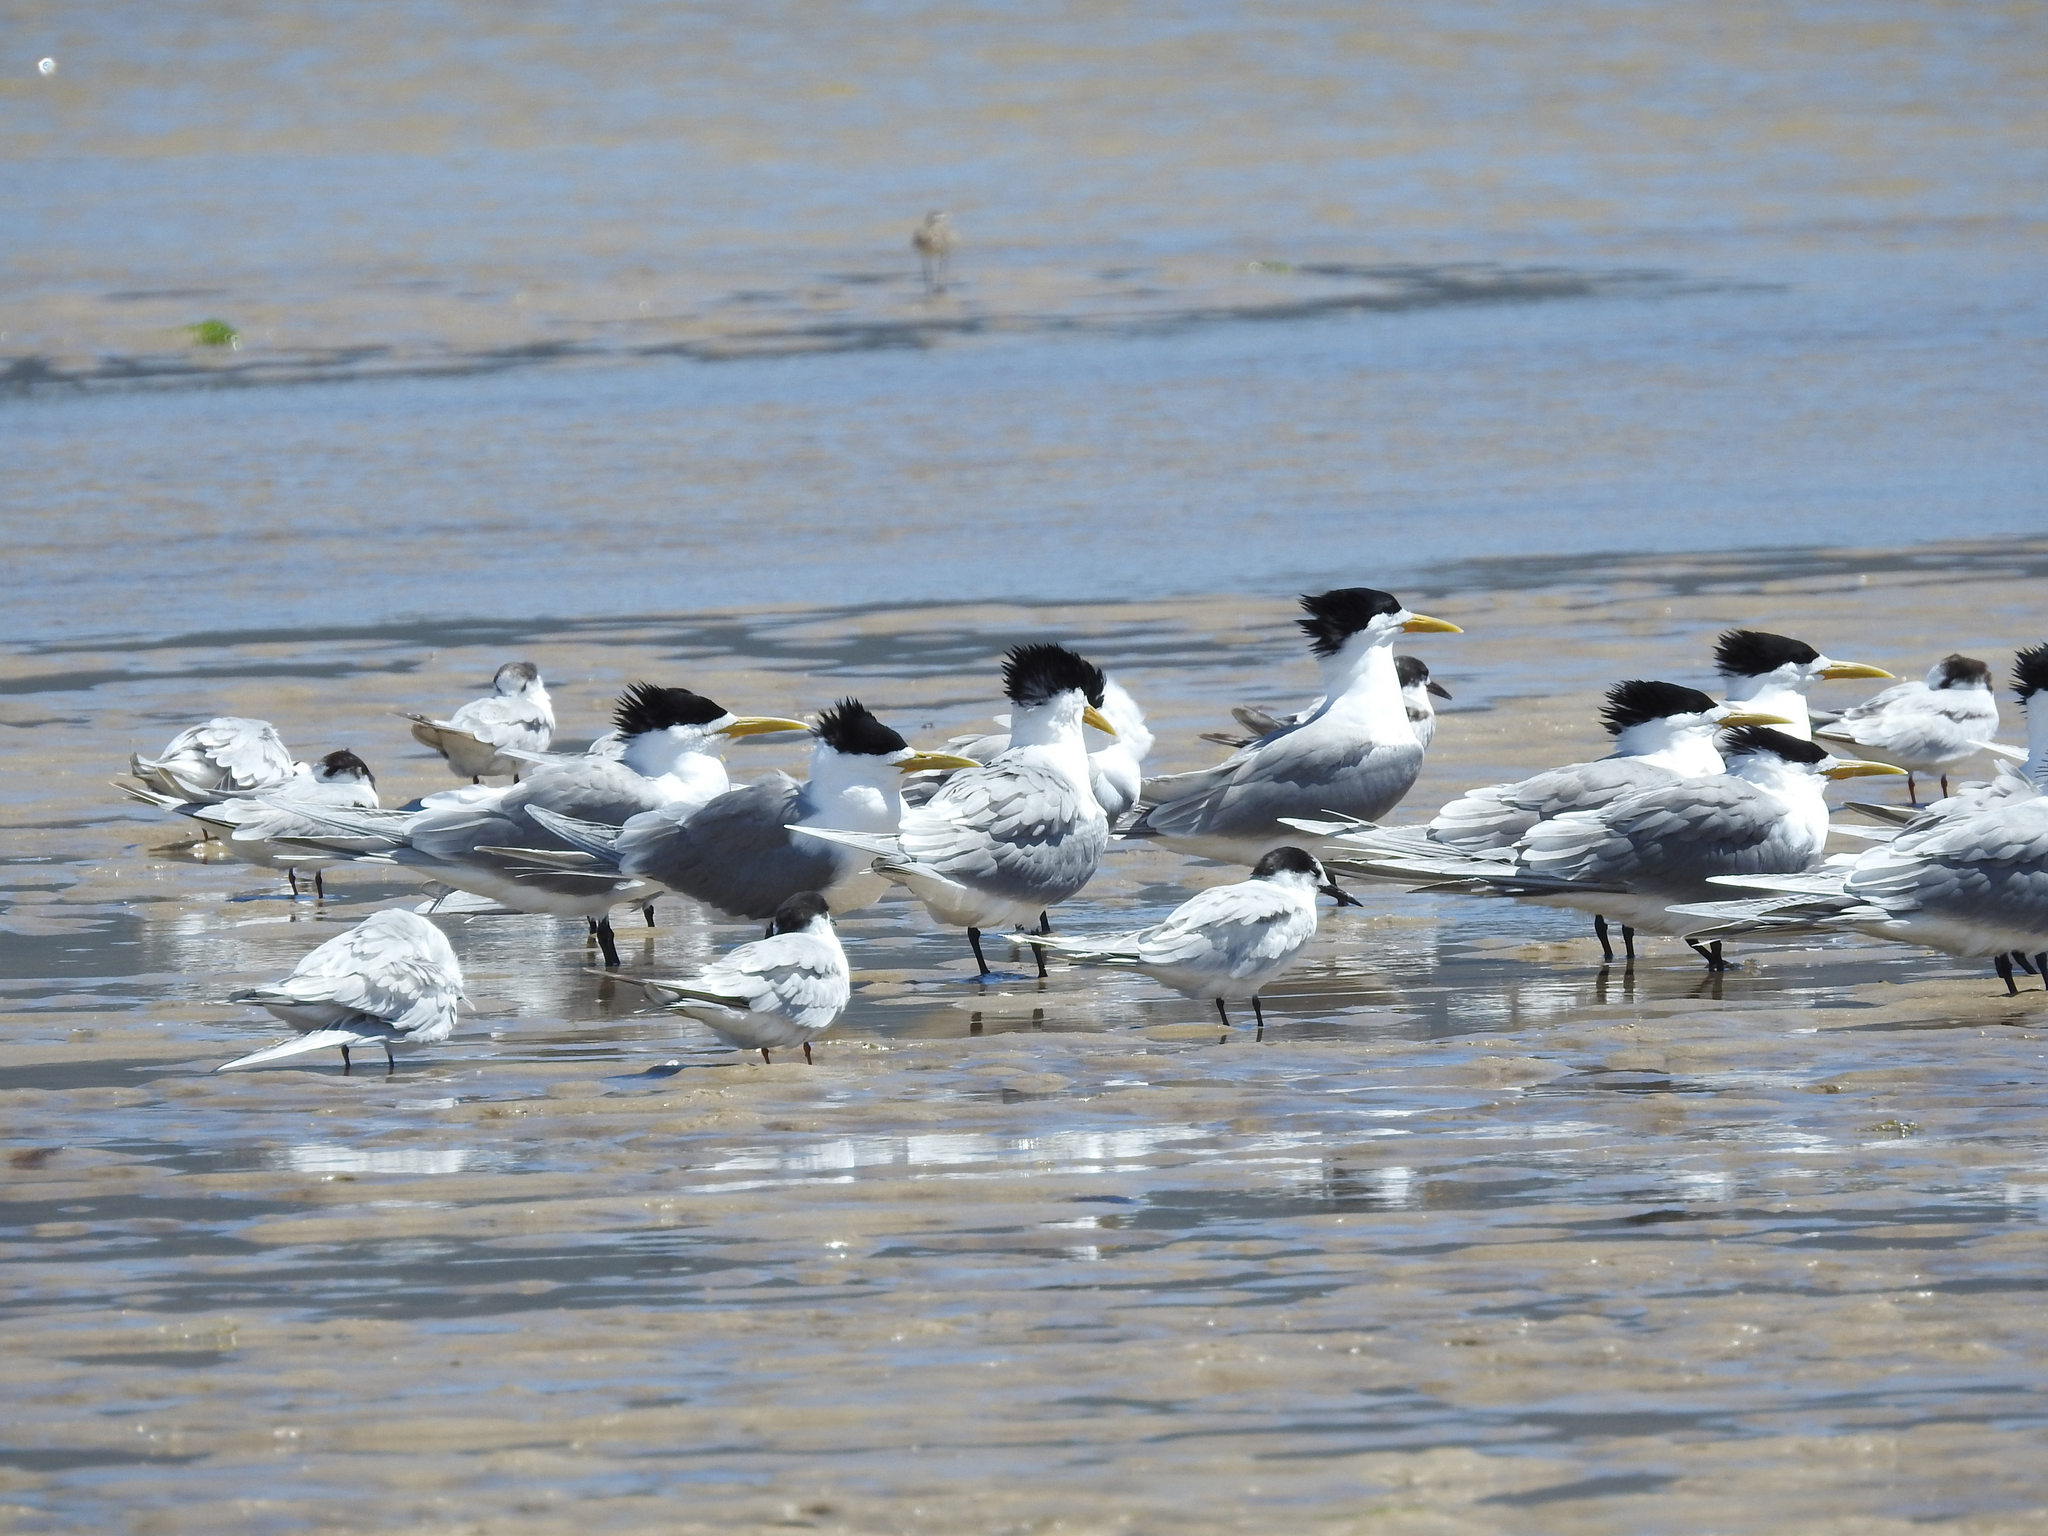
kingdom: Animalia
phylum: Chordata
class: Aves
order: Charadriiformes
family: Laridae
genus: Thalasseus
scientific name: Thalasseus bergii
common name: Greater crested tern
